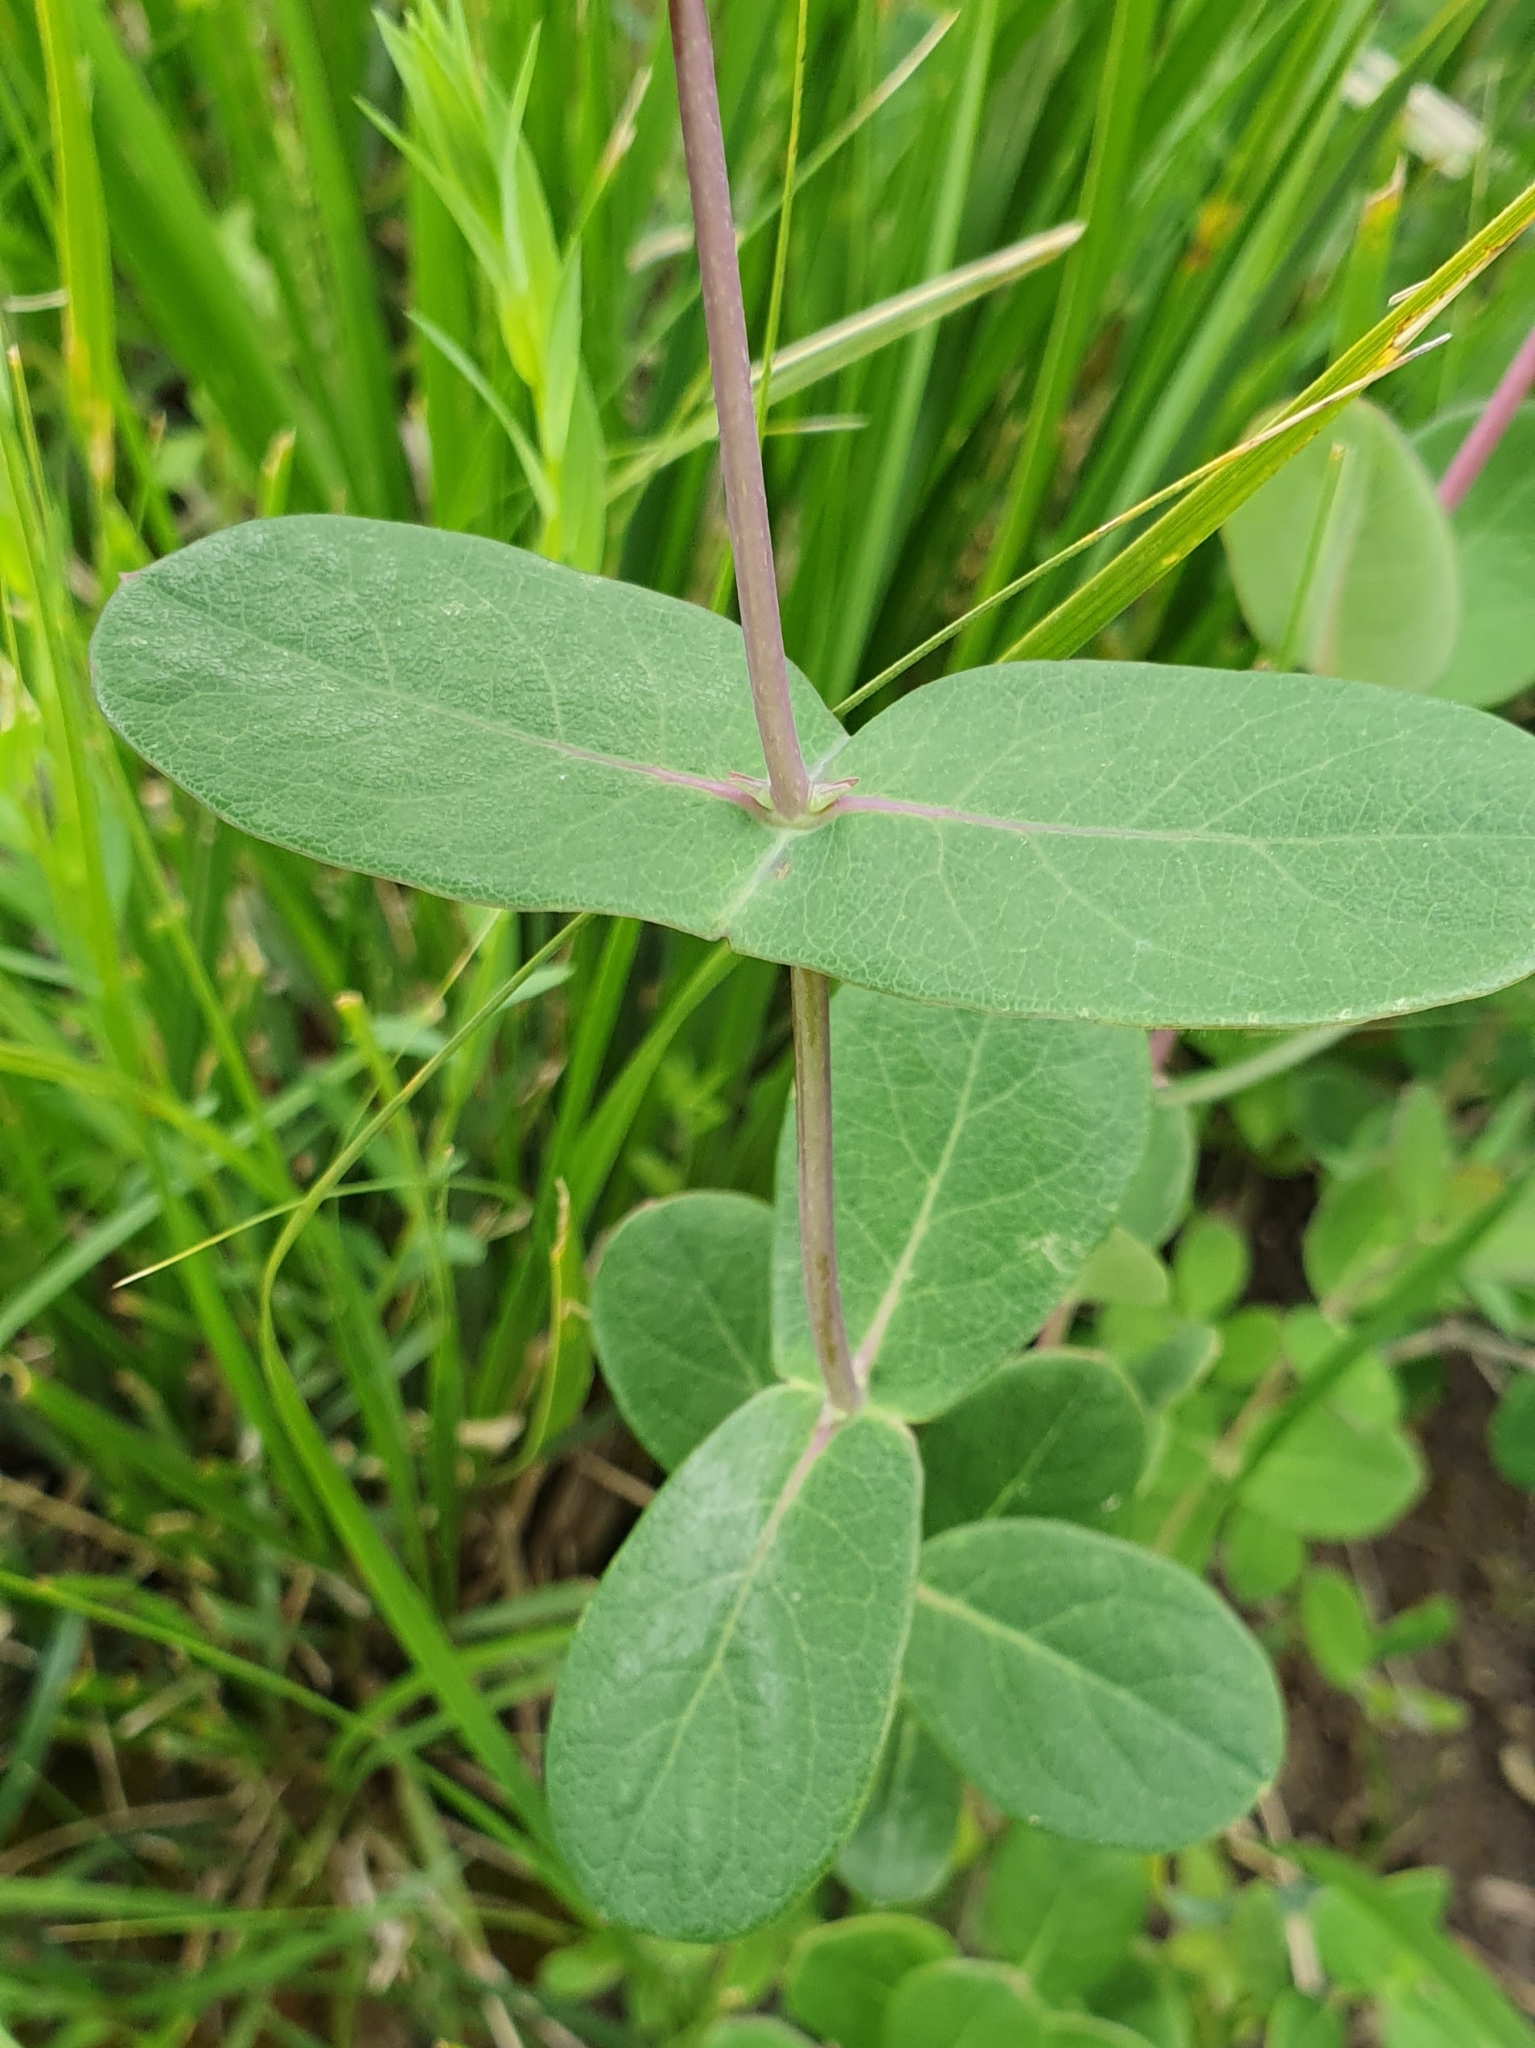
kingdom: Plantae
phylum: Tracheophyta
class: Magnoliopsida
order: Dipsacales
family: Caprifoliaceae
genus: Lonicera
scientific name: Lonicera implexa
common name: Minorca honeysuckle
